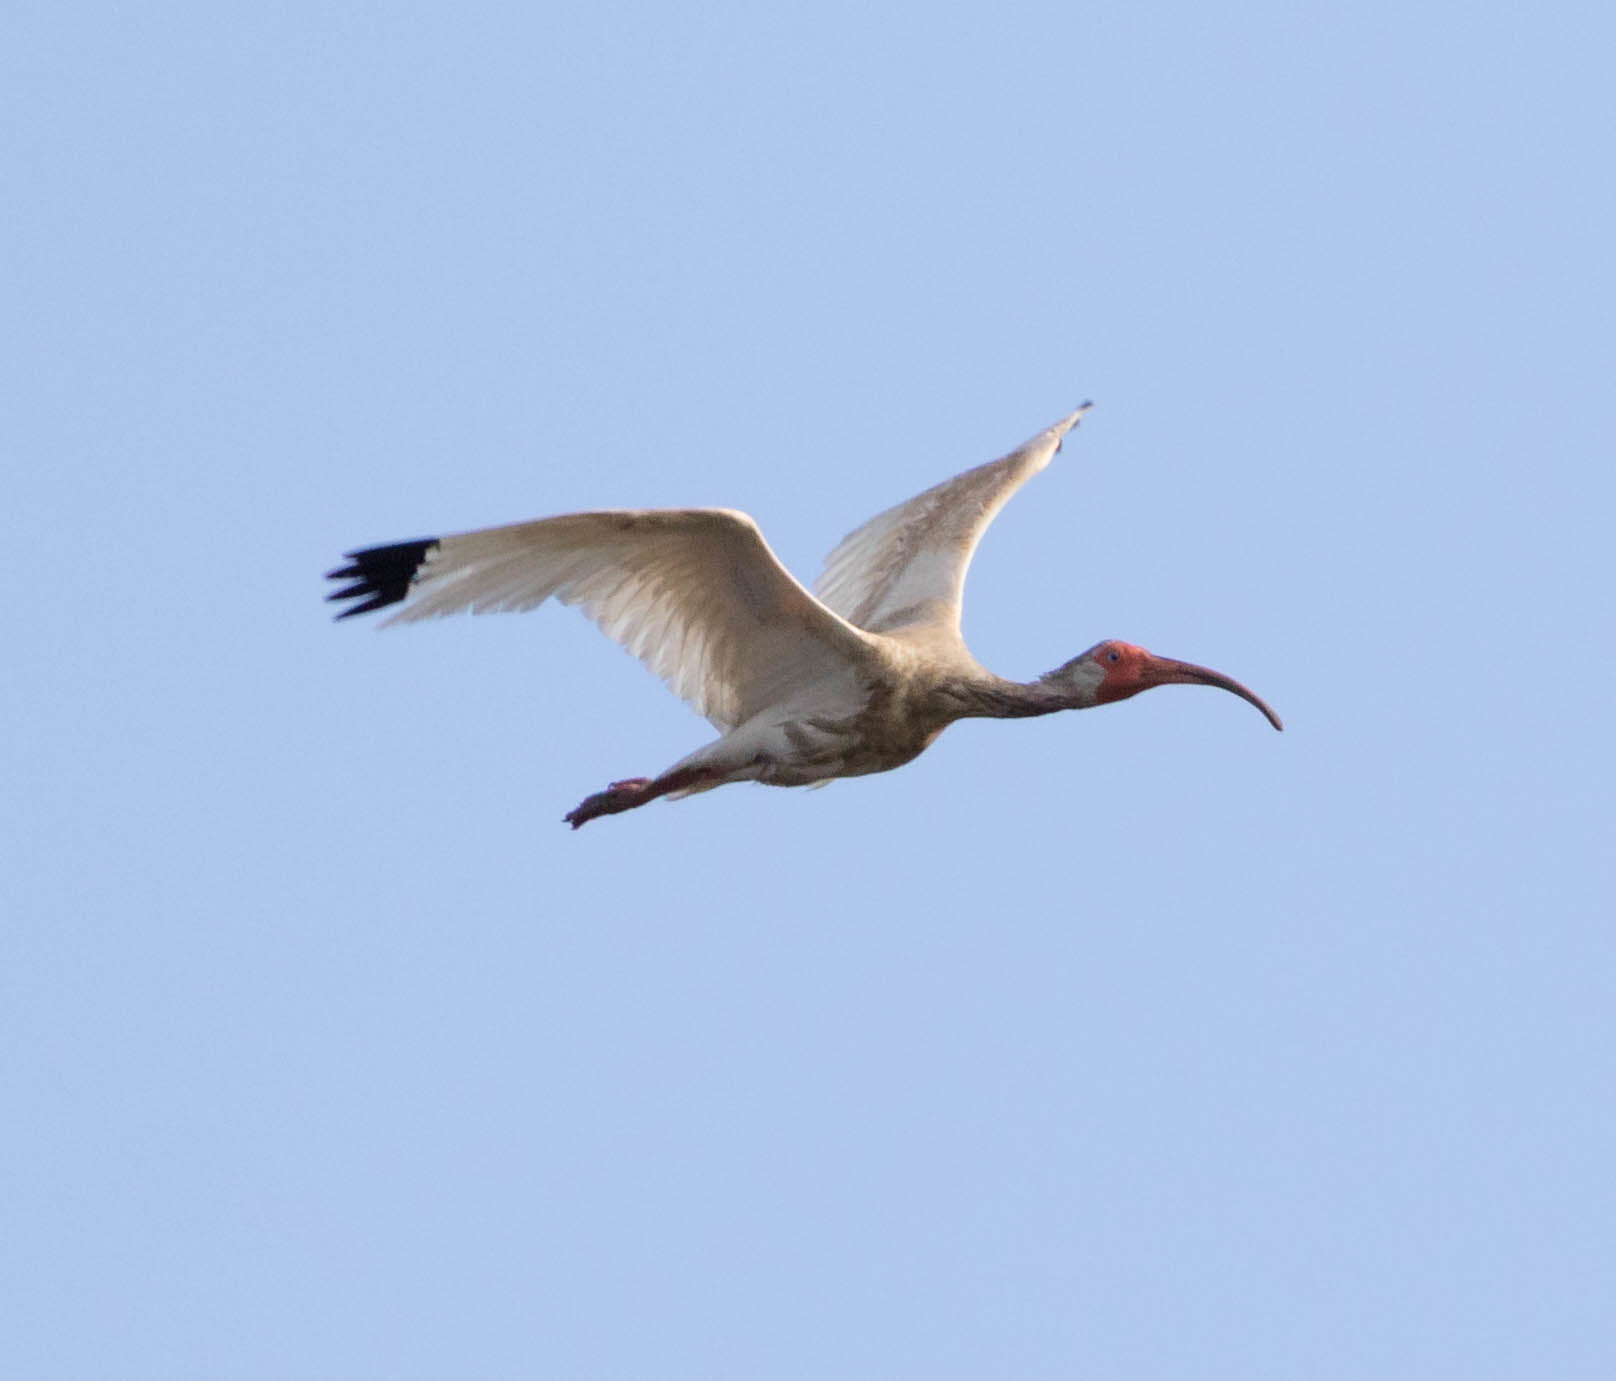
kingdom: Animalia
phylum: Chordata
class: Aves
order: Pelecaniformes
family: Threskiornithidae
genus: Eudocimus
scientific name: Eudocimus albus
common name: White ibis
